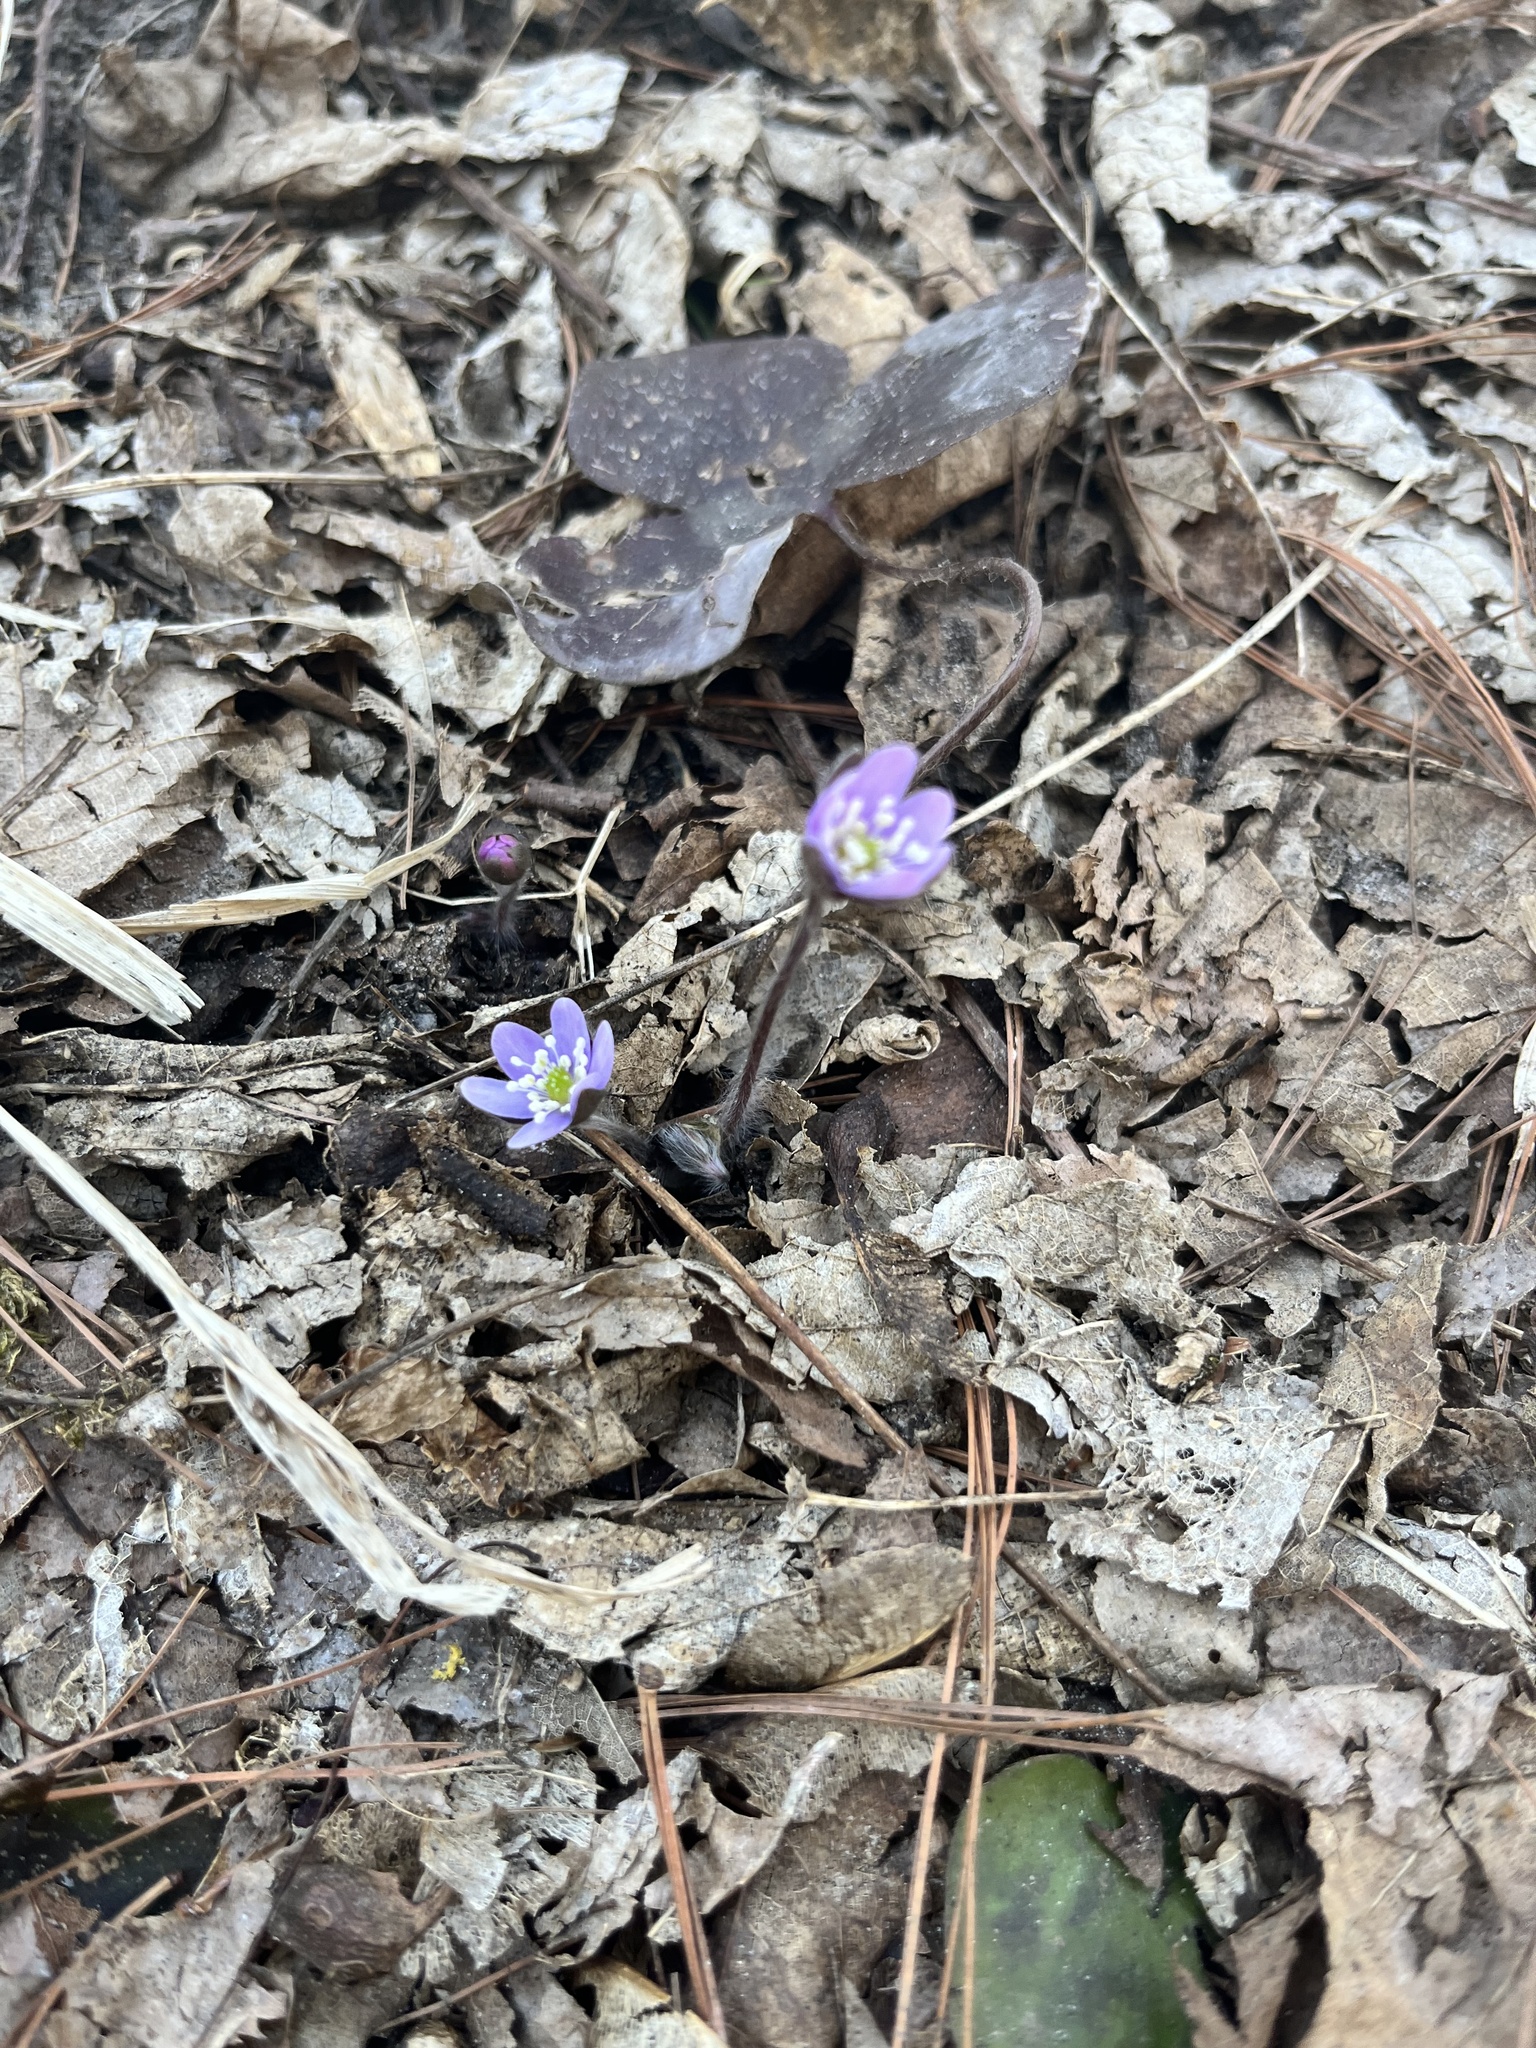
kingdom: Plantae
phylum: Tracheophyta
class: Magnoliopsida
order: Ranunculales
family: Ranunculaceae
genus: Hepatica
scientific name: Hepatica acutiloba
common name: Sharp-lobed hepatica
